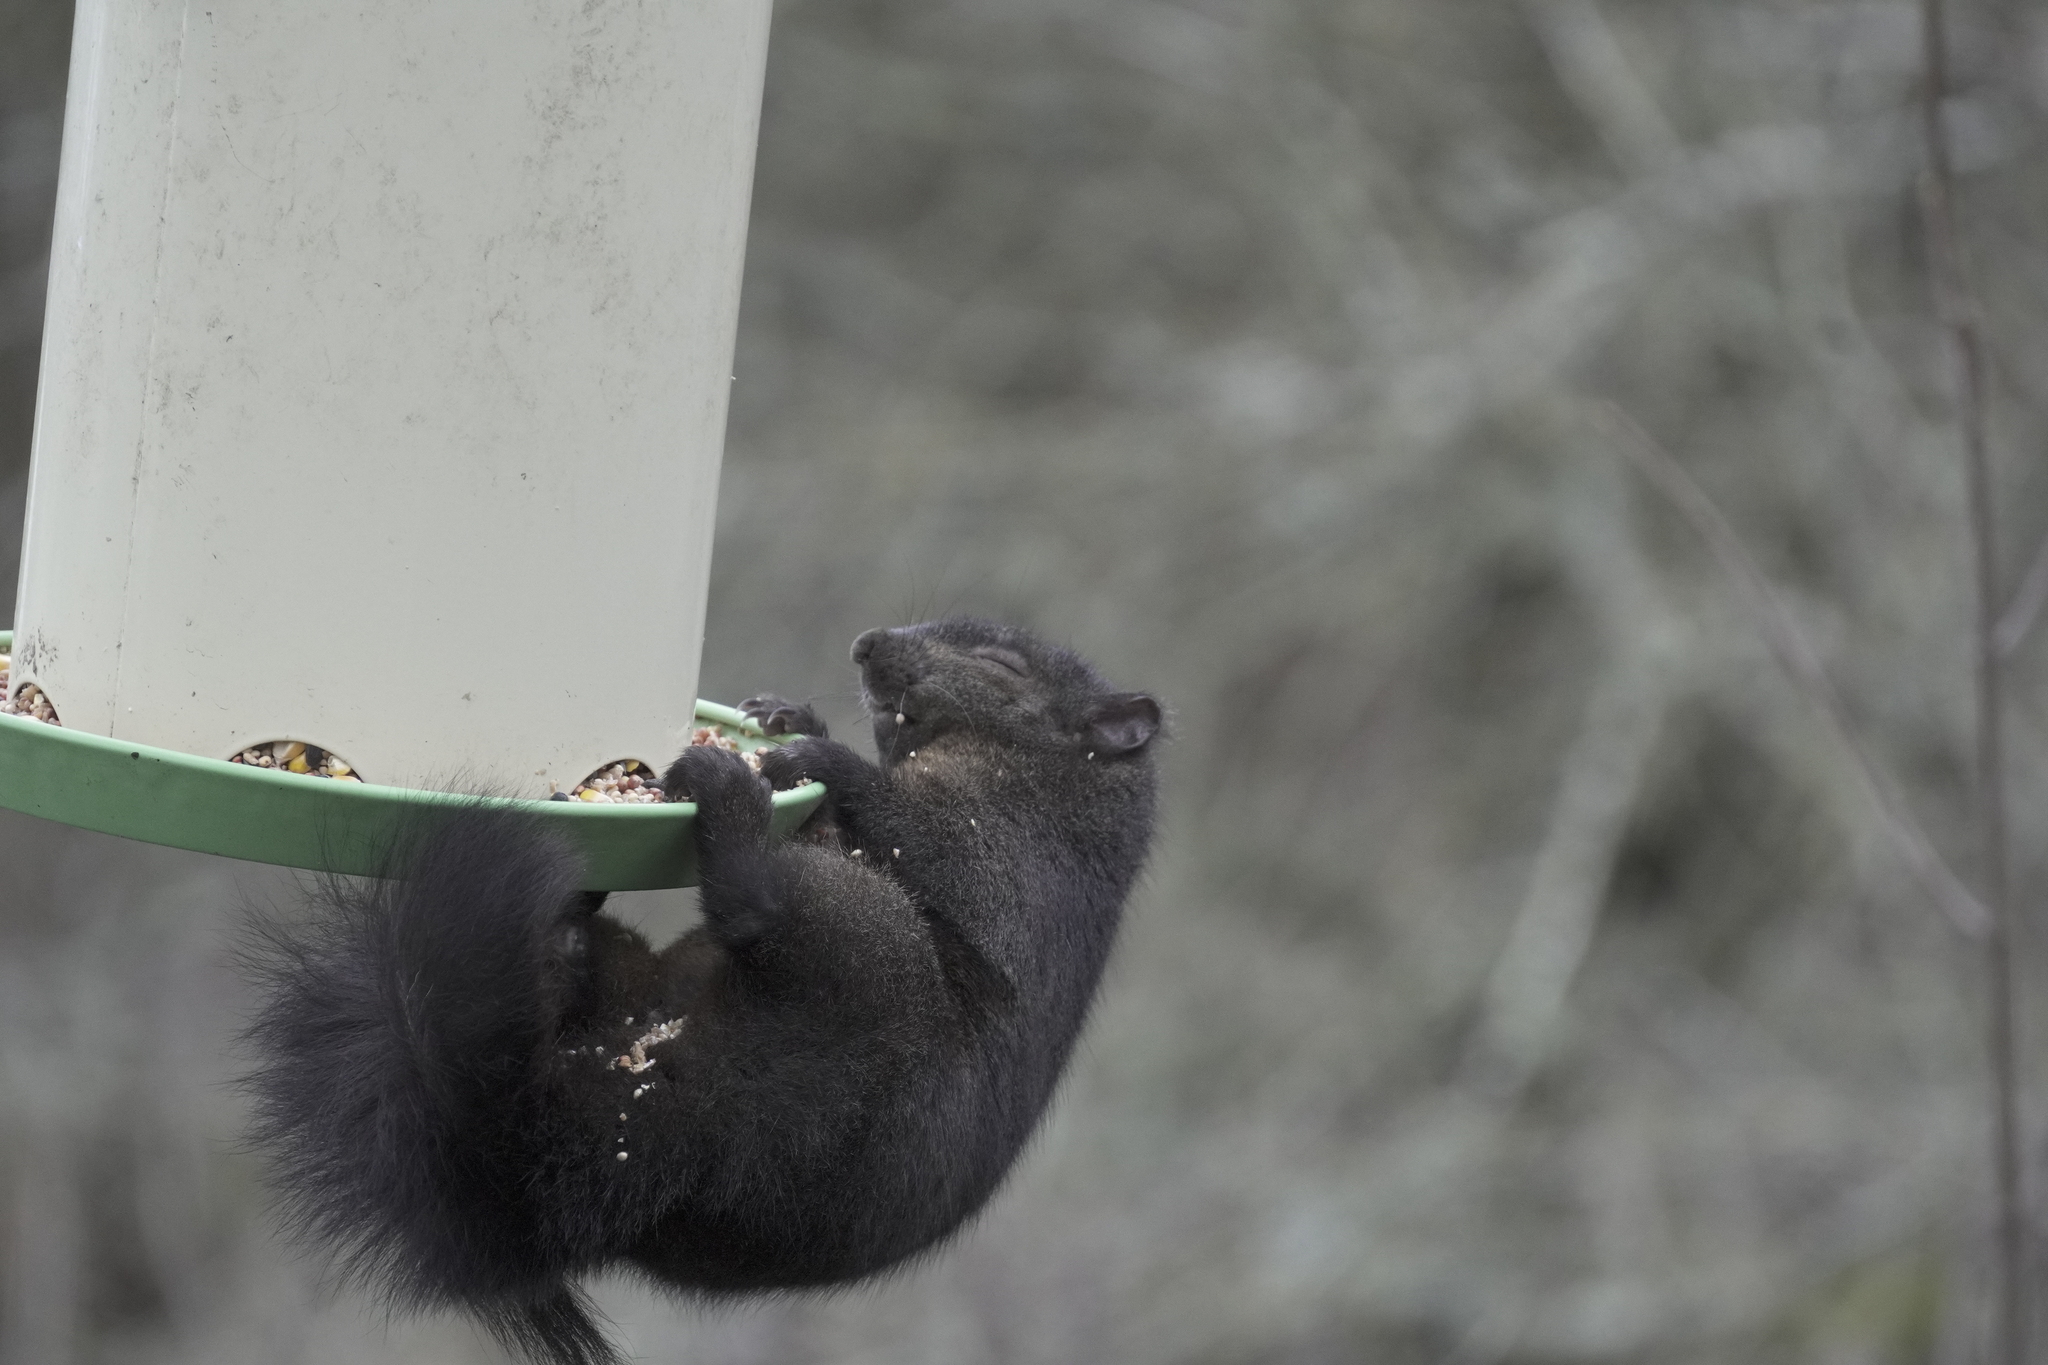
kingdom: Animalia
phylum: Chordata
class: Mammalia
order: Rodentia
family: Sciuridae
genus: Sciurus
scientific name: Sciurus carolinensis
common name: Eastern gray squirrel
